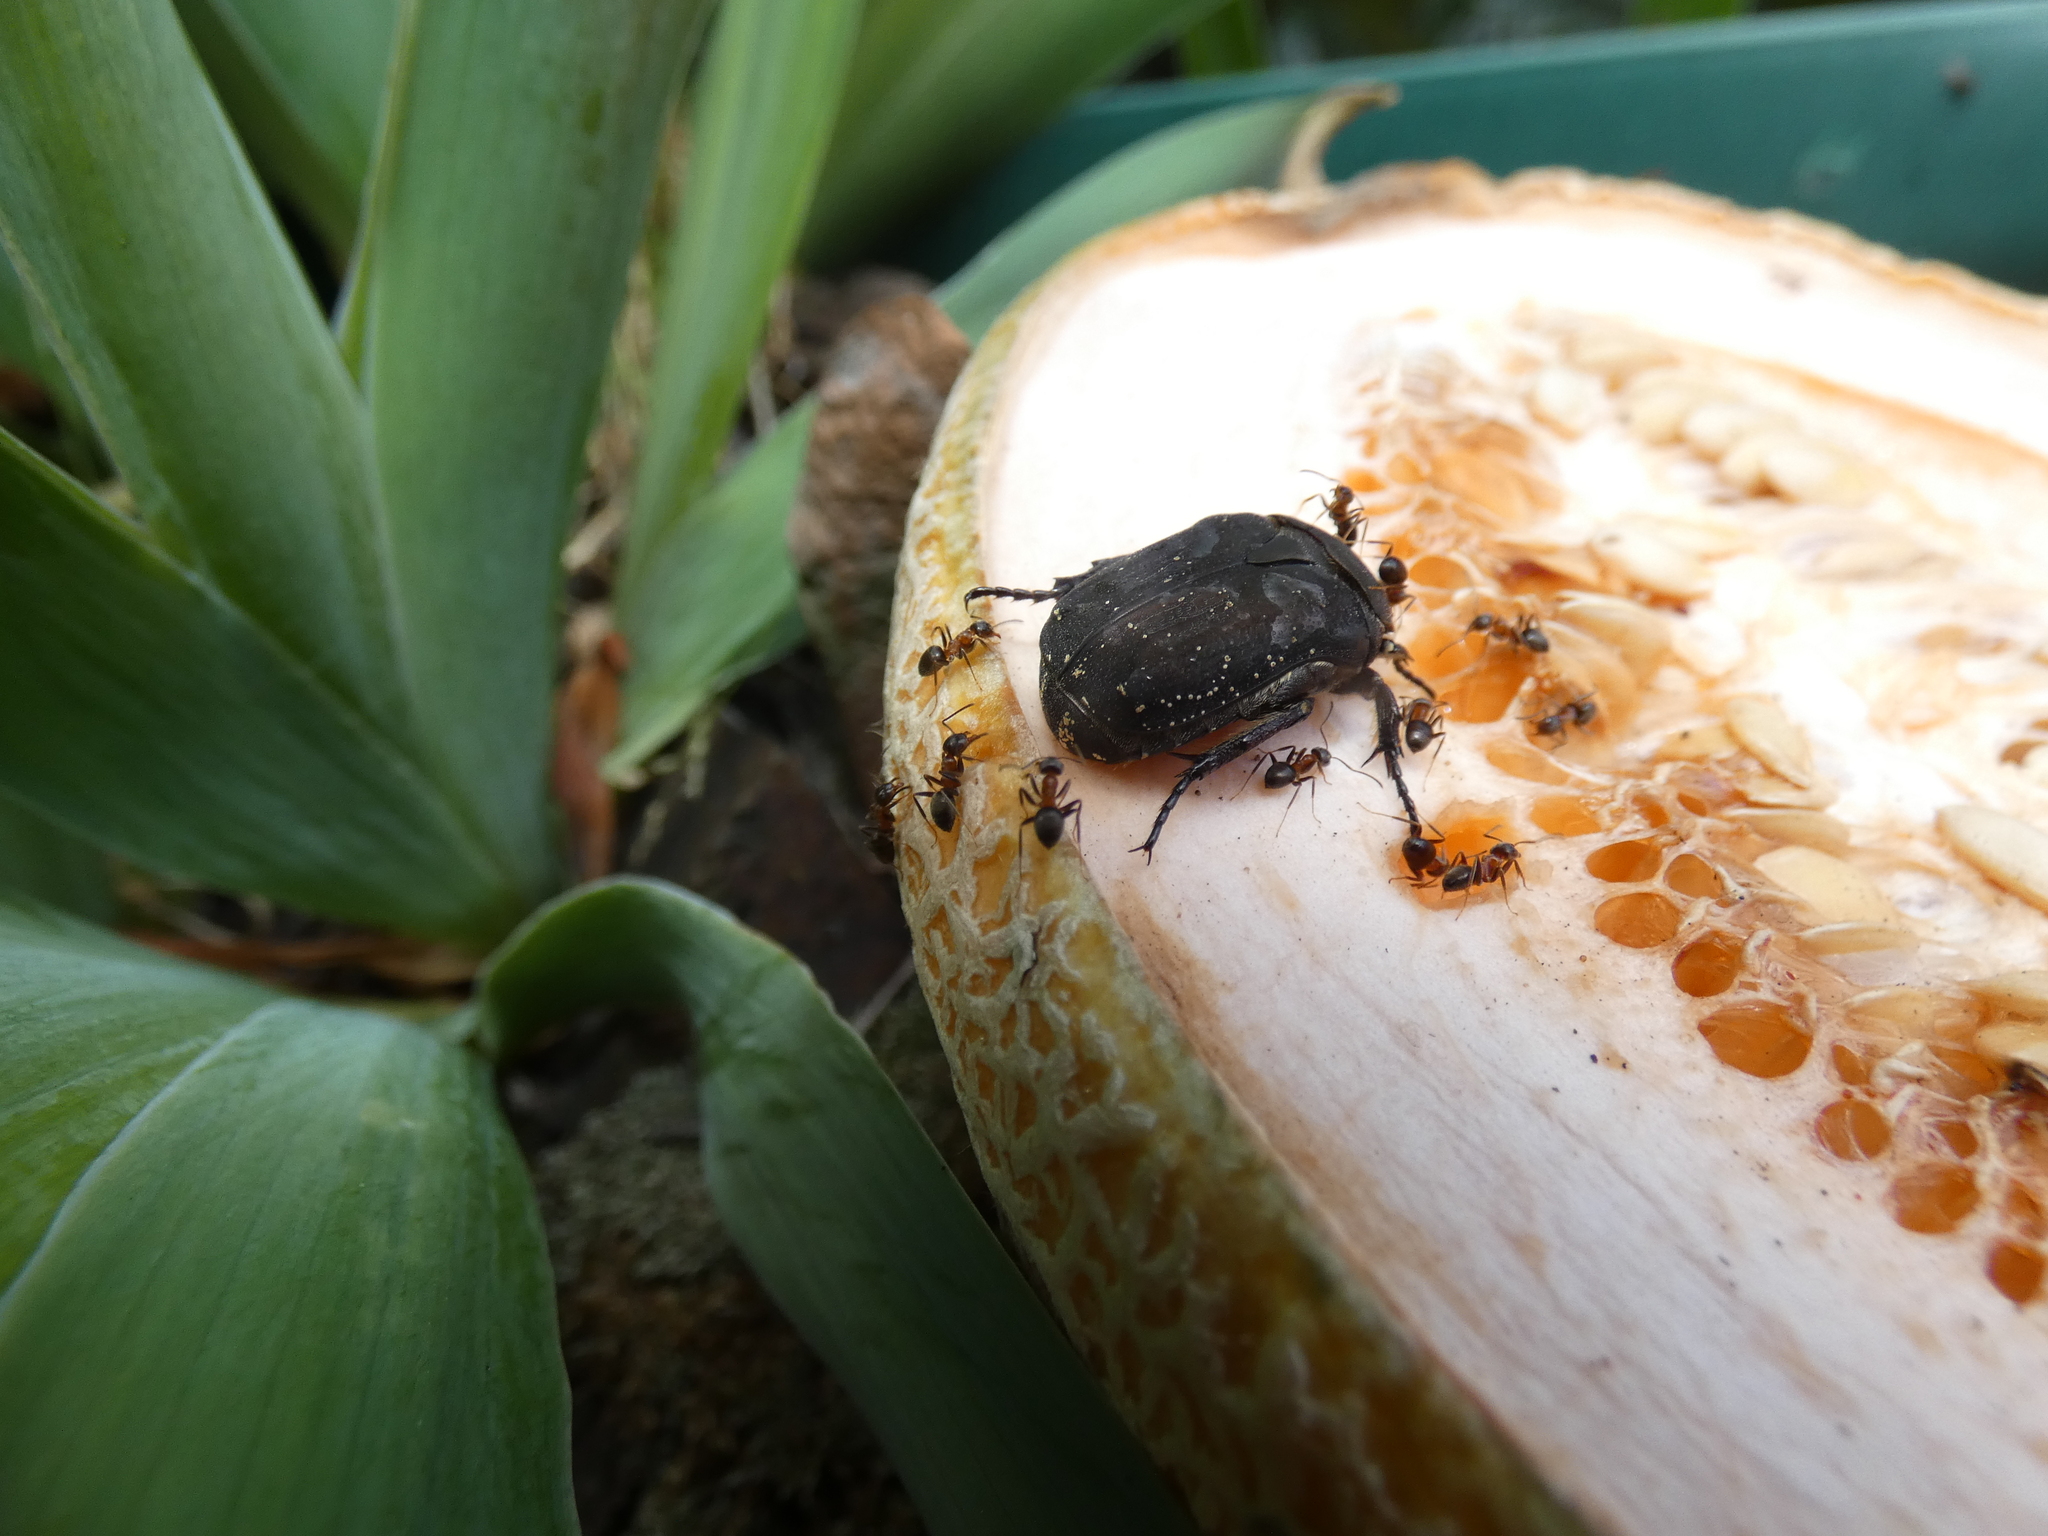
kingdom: Animalia
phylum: Arthropoda
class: Insecta
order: Coleoptera
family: Scarabaeidae
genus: Protaetia
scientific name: Protaetia morio
